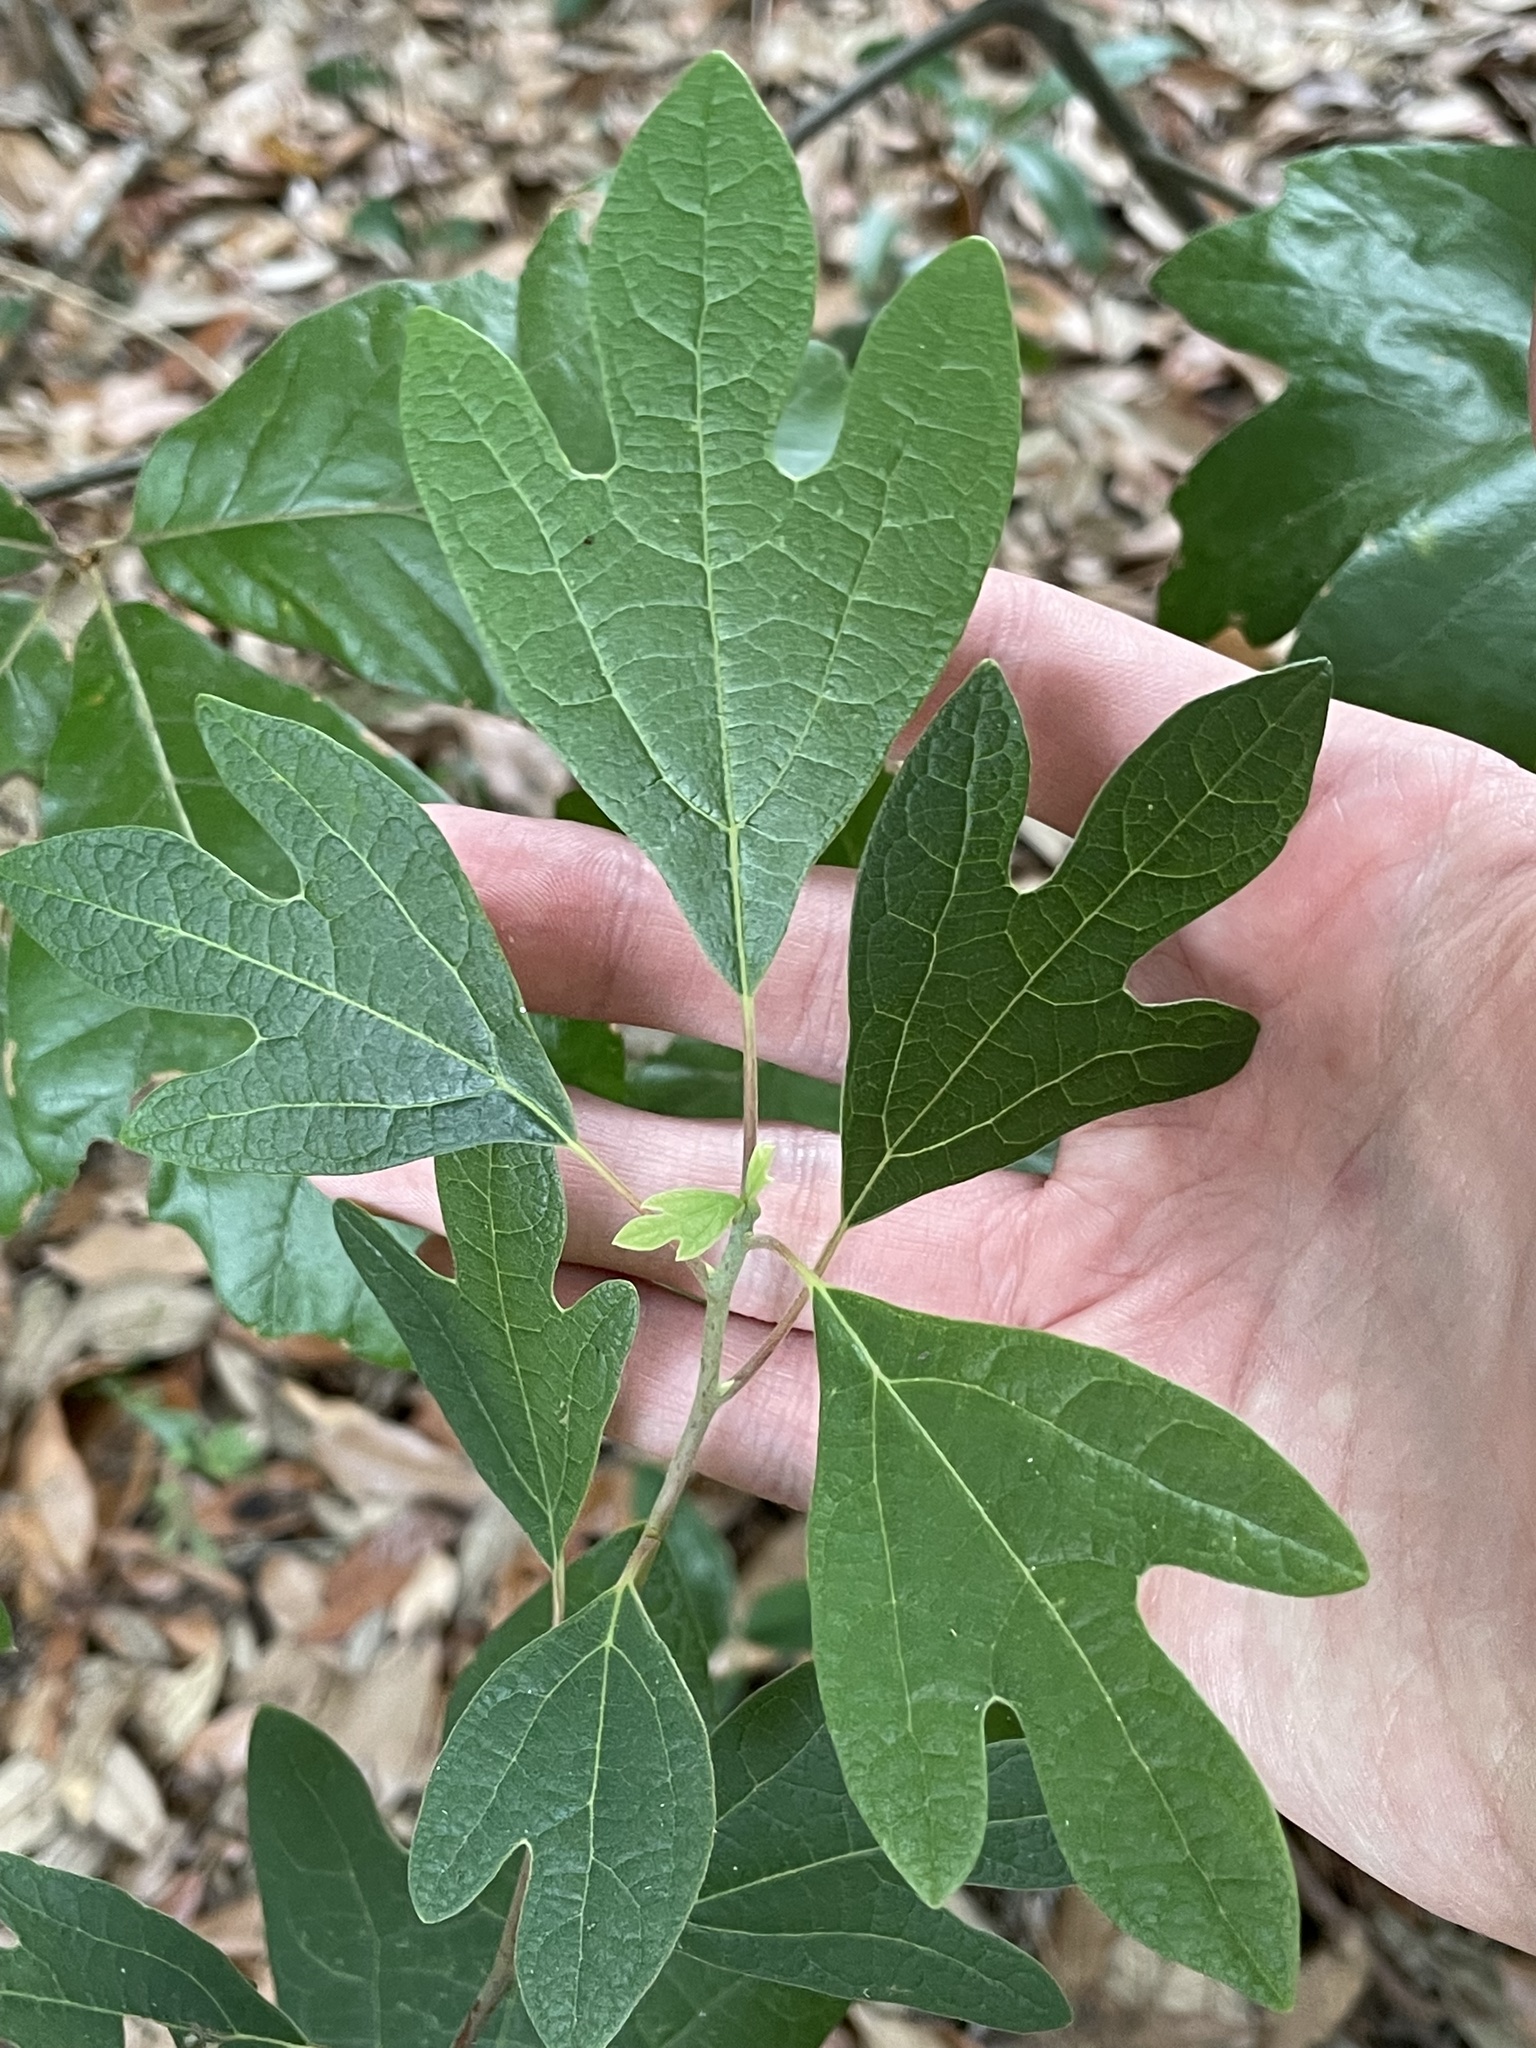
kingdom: Plantae
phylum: Tracheophyta
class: Magnoliopsida
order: Laurales
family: Lauraceae
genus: Sassafras
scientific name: Sassafras albidum
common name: Sassafras
